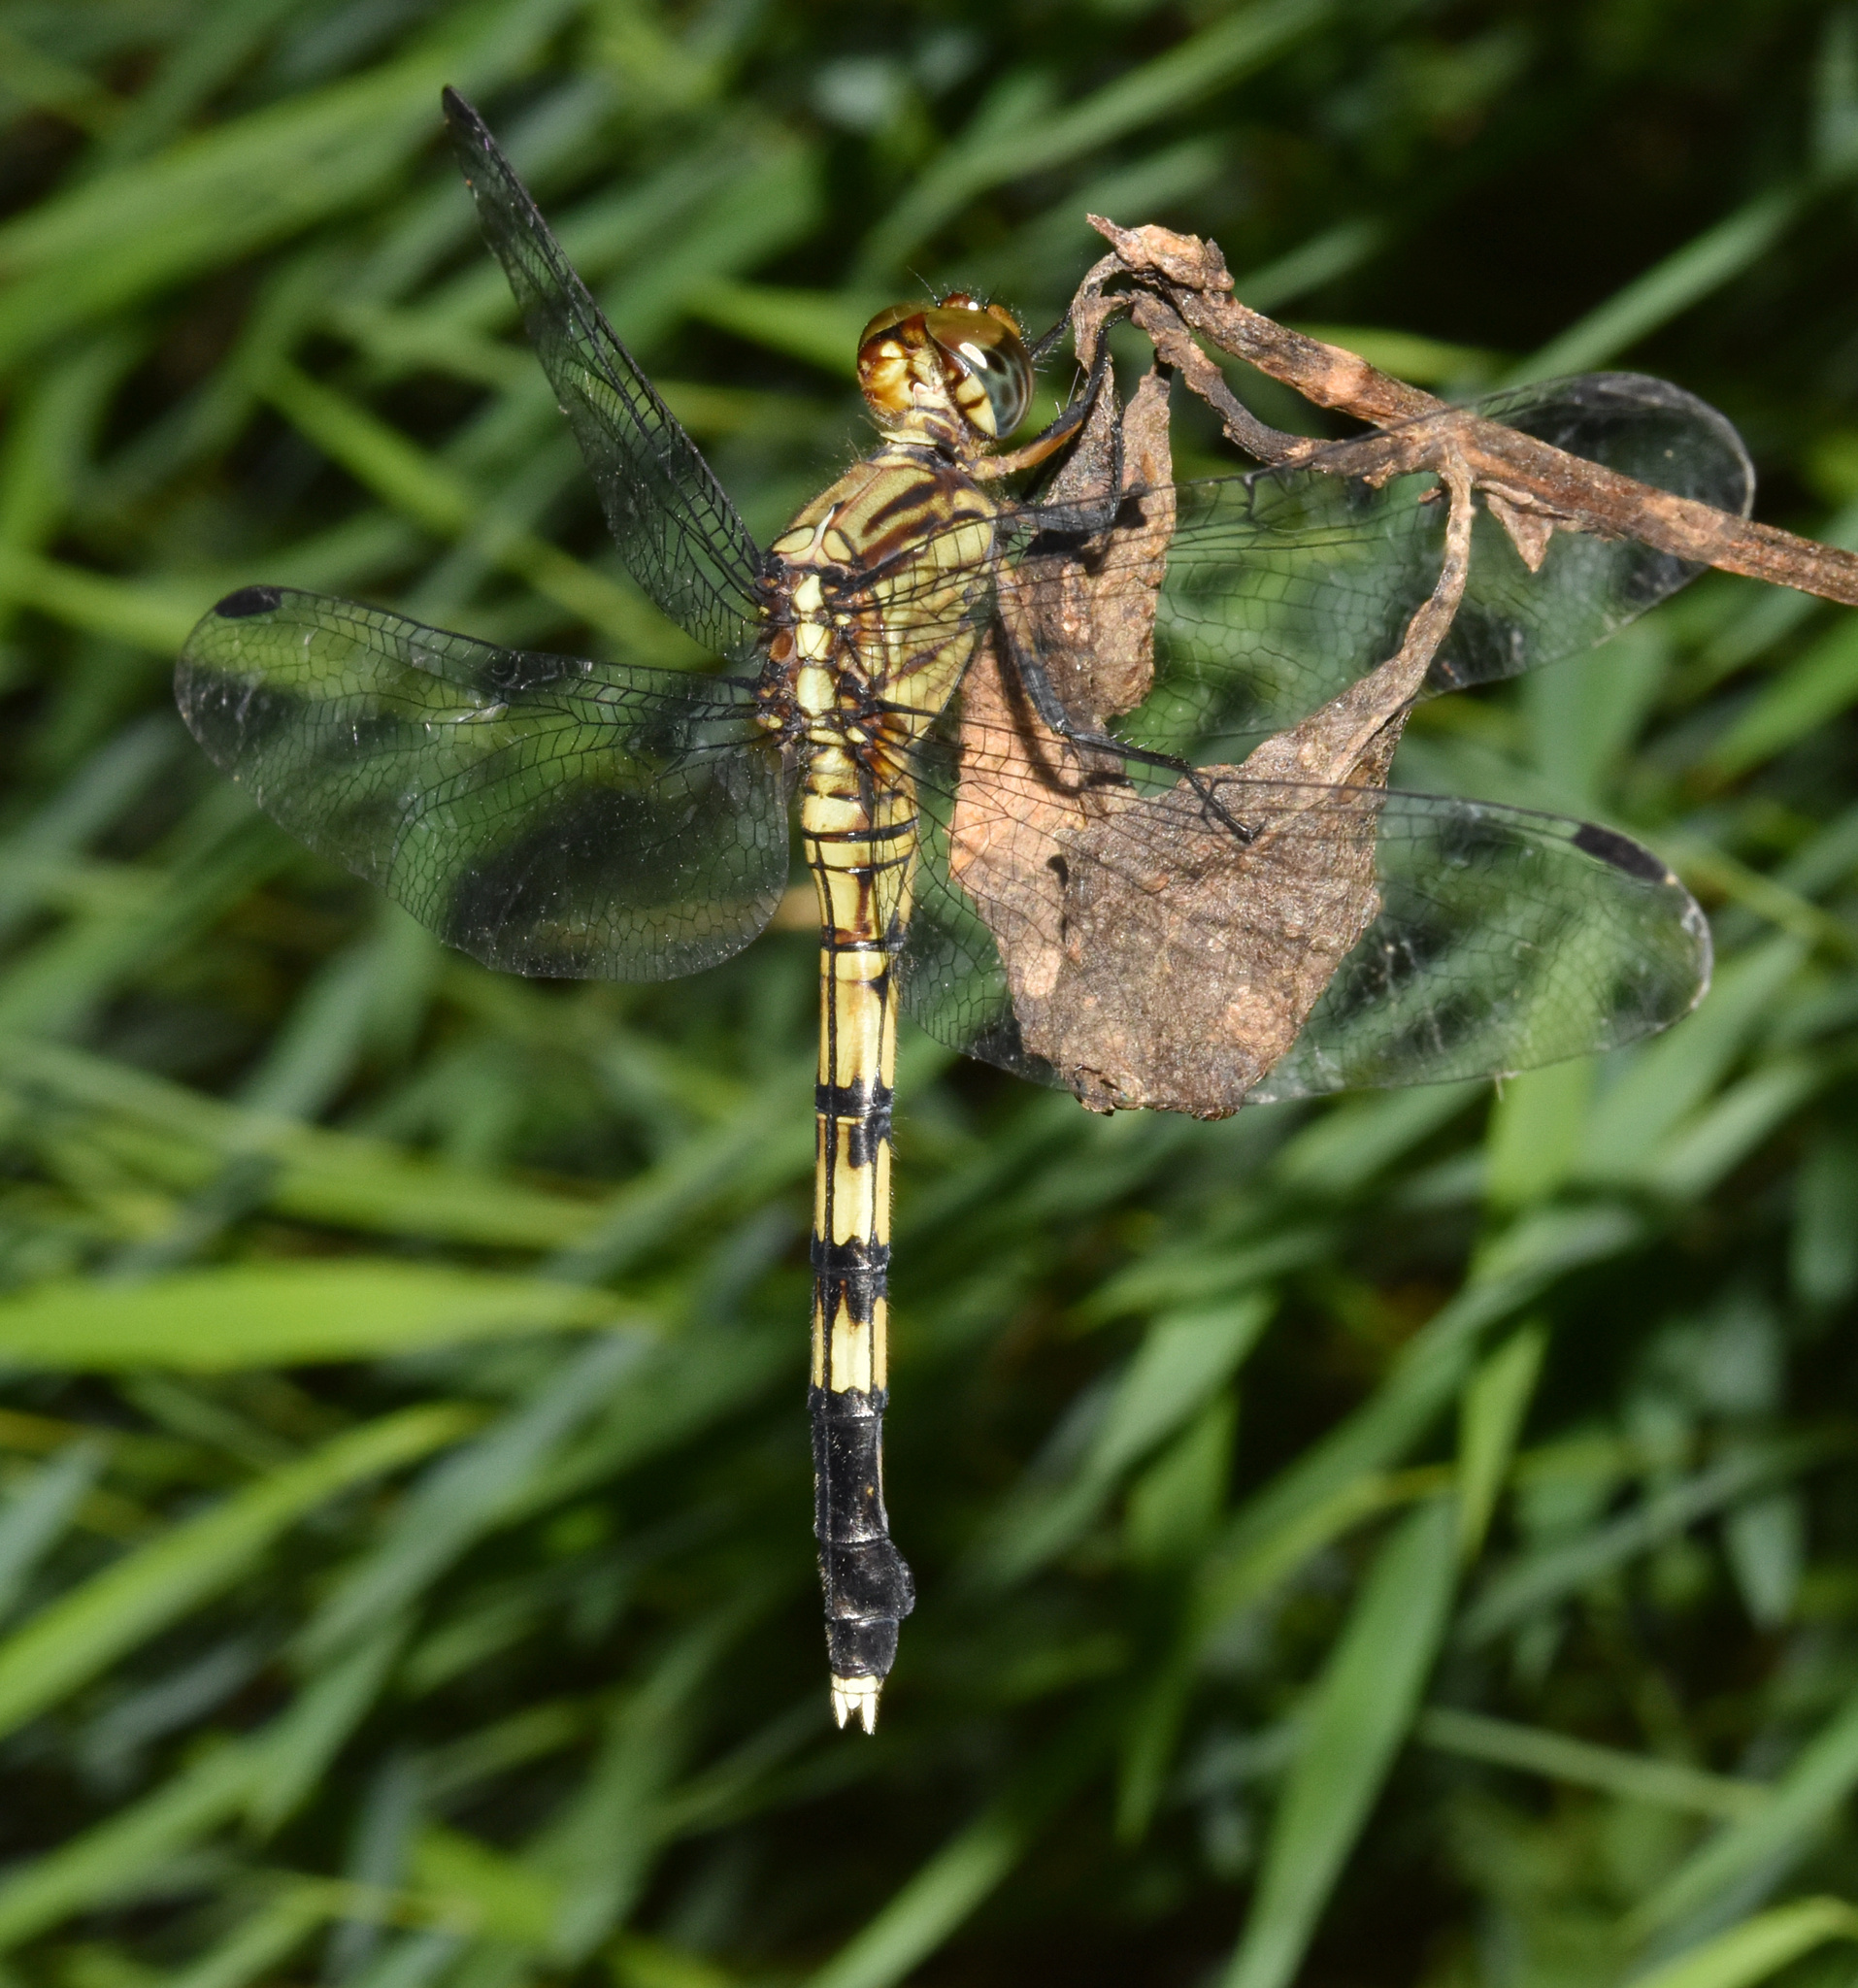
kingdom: Animalia
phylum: Arthropoda
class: Insecta
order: Odonata
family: Libellulidae
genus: Orthetrum
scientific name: Orthetrum julia
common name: Julia skimmer
